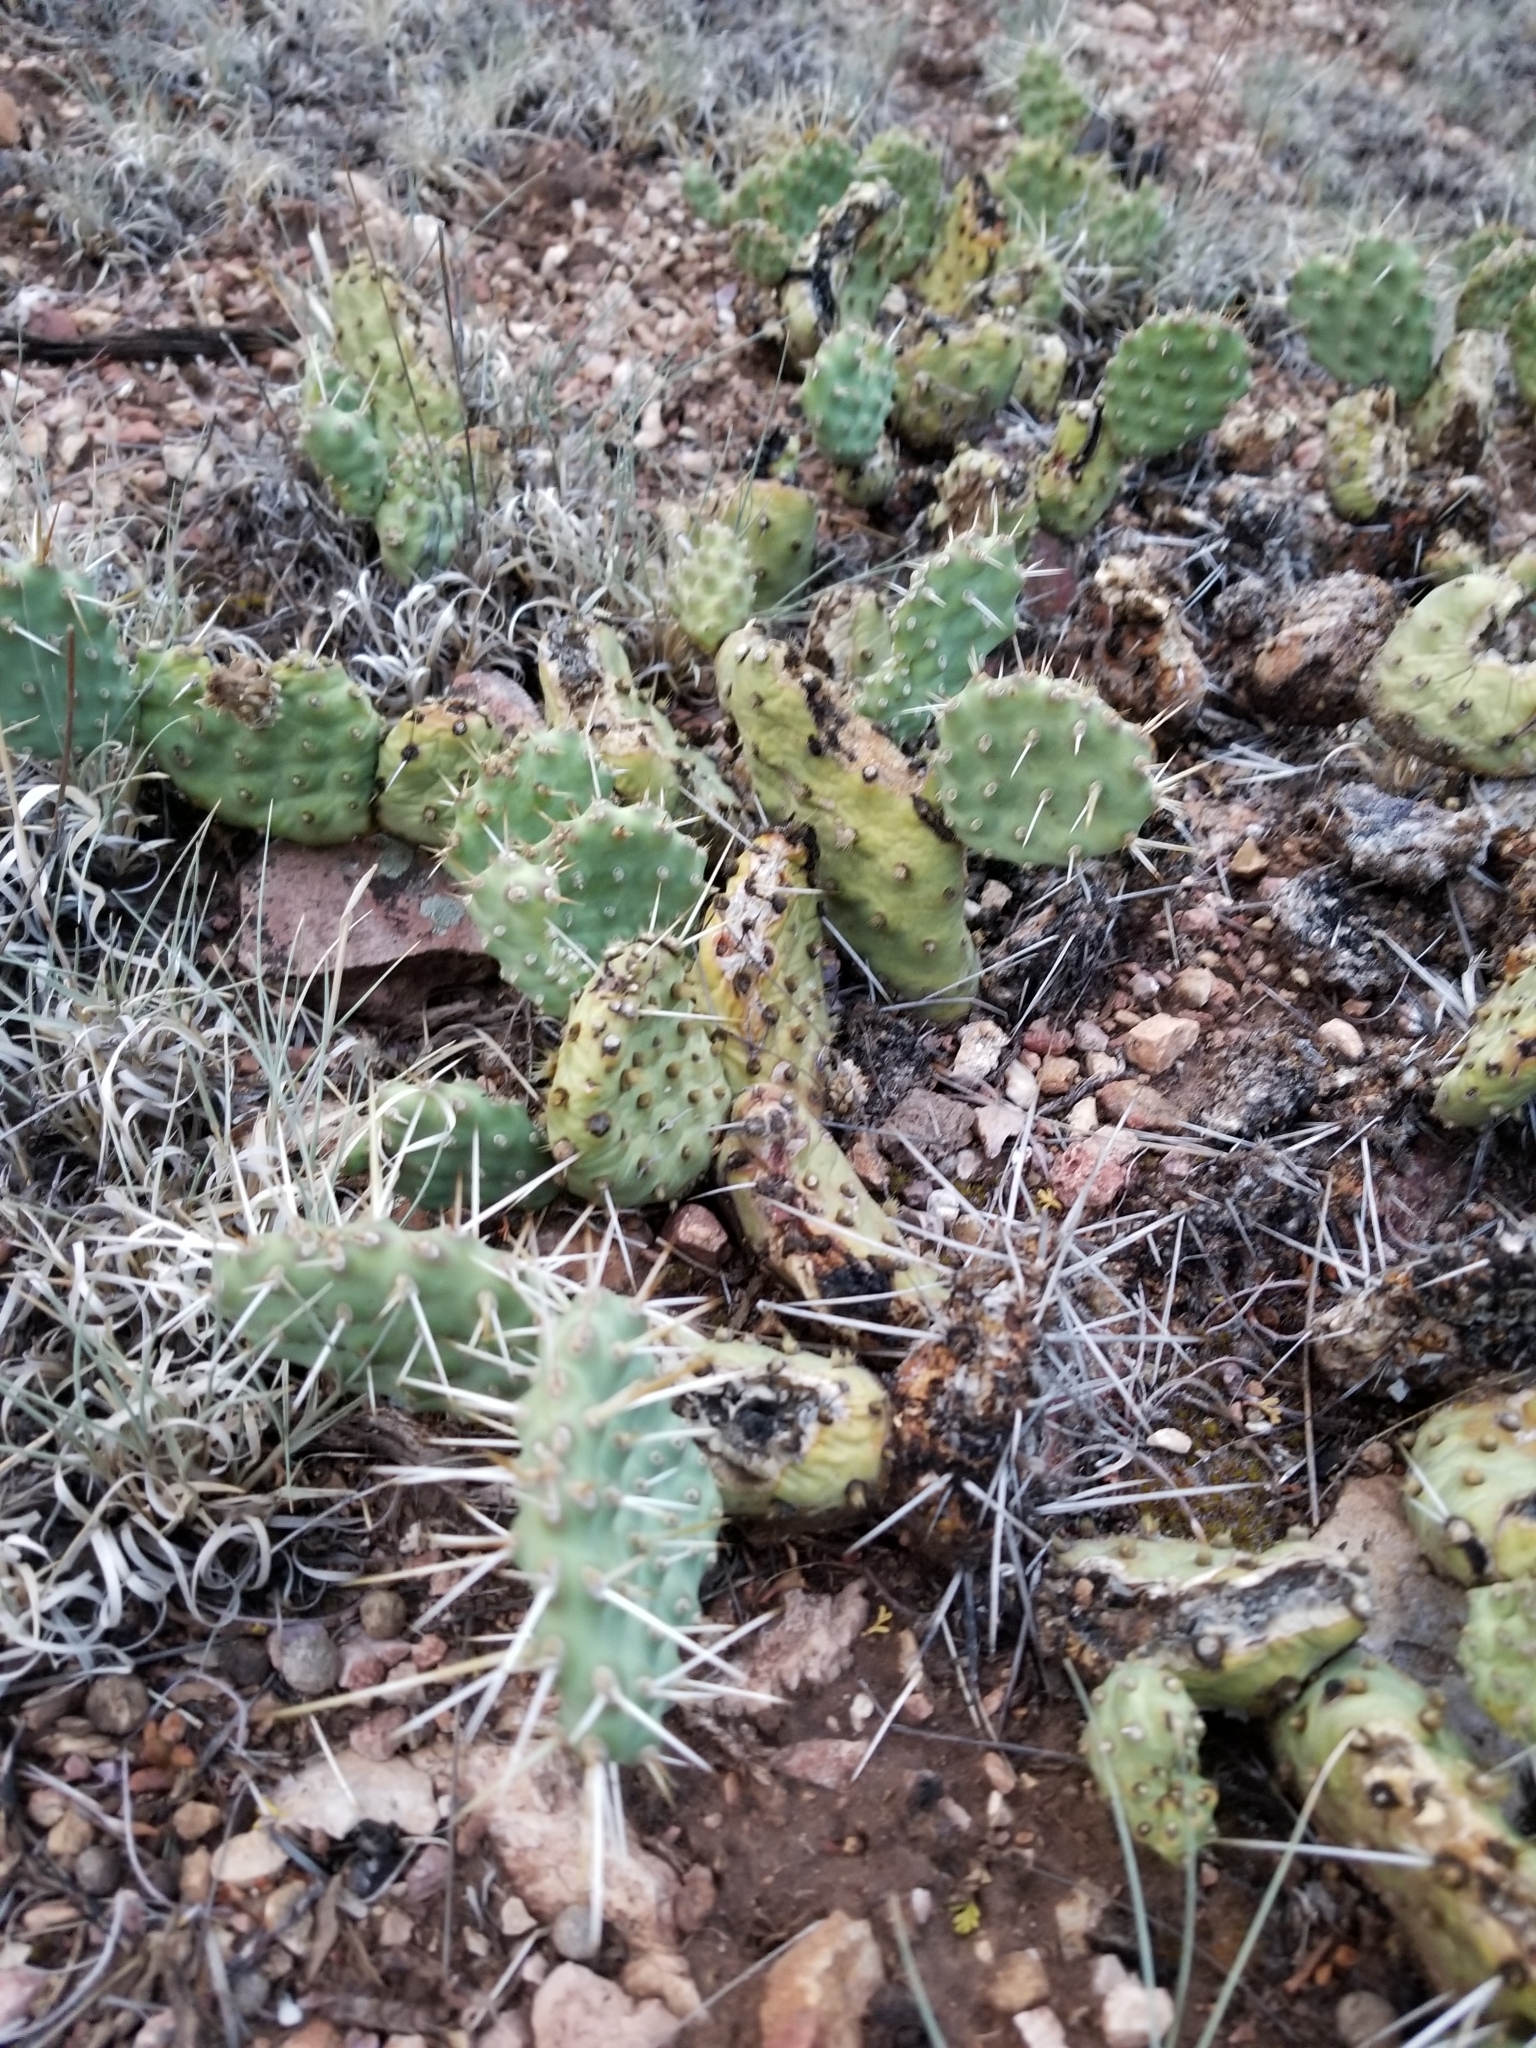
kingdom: Plantae
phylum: Tracheophyta
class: Magnoliopsida
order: Caryophyllales
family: Cactaceae
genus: Opuntia
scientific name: Opuntia debreczyi
